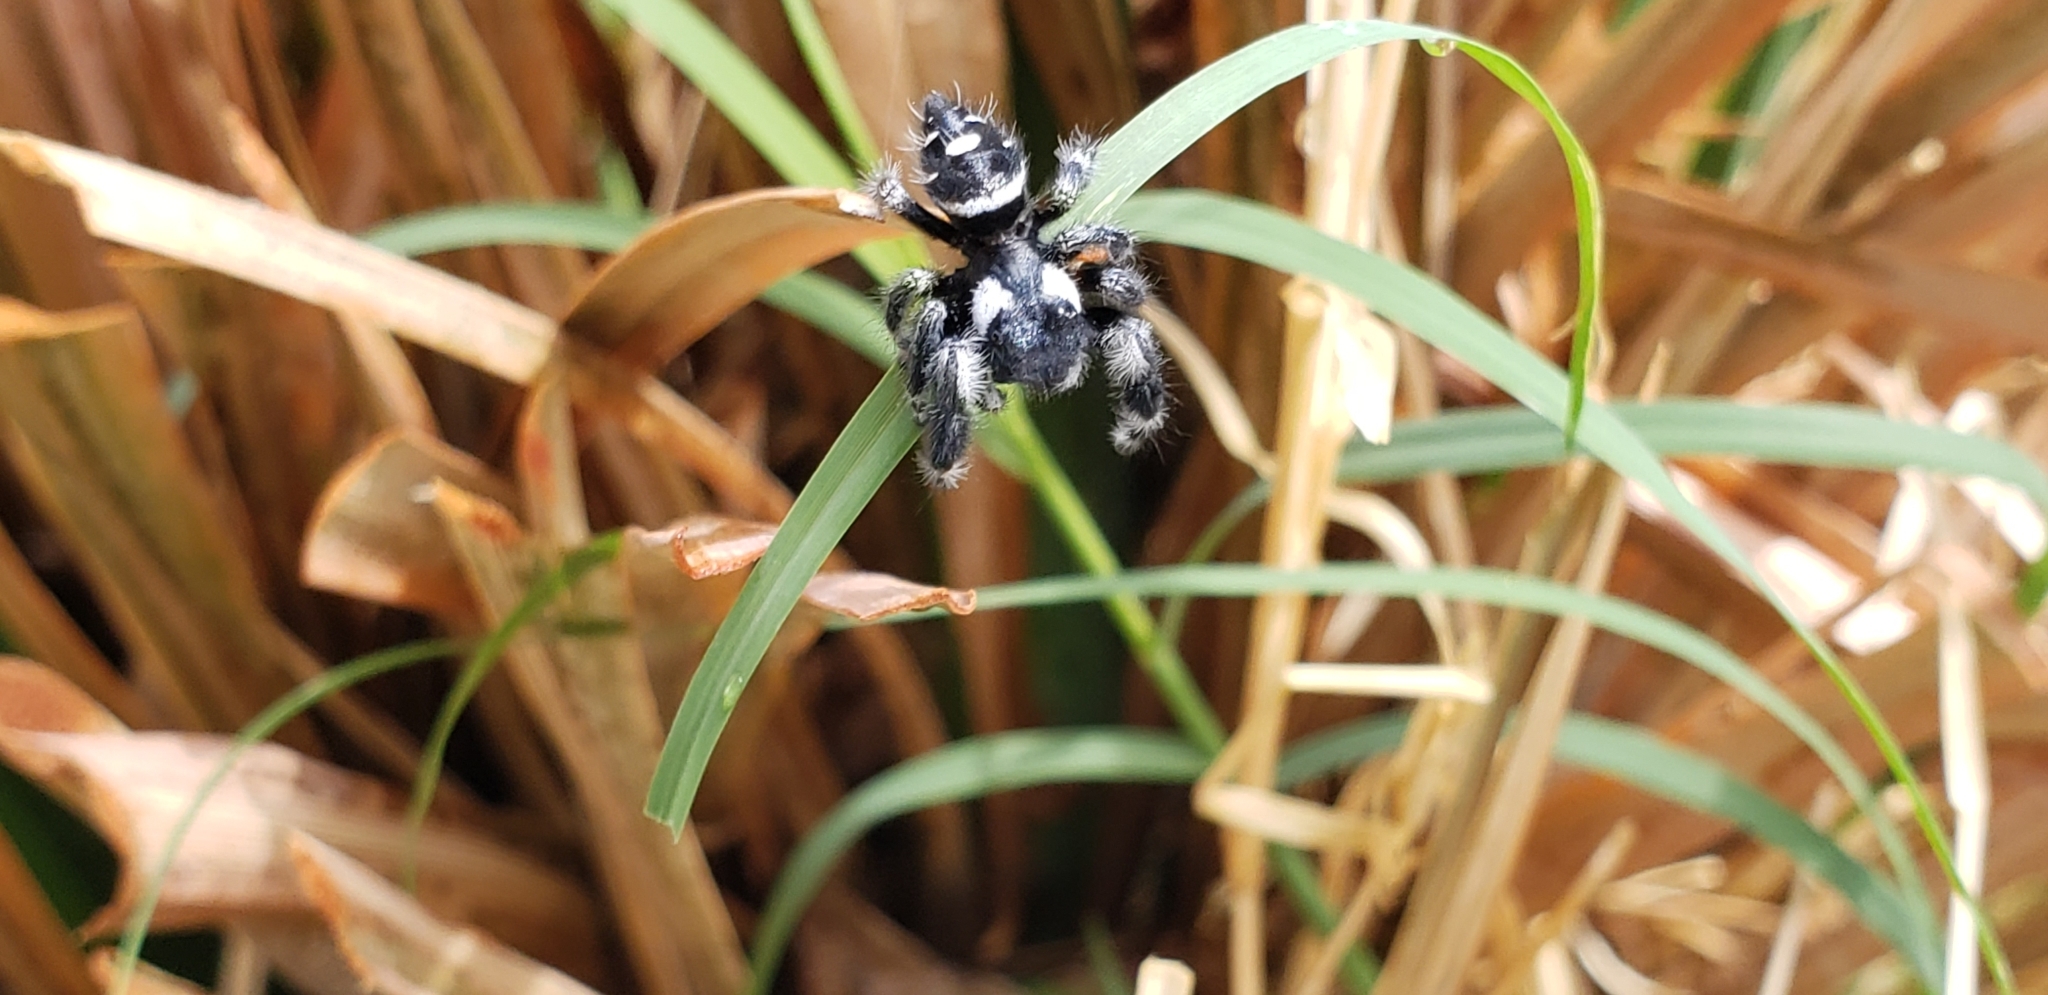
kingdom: Animalia
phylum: Arthropoda
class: Arachnida
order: Araneae
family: Salticidae
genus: Phidippus
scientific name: Phidippus audax
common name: Bold jumper
